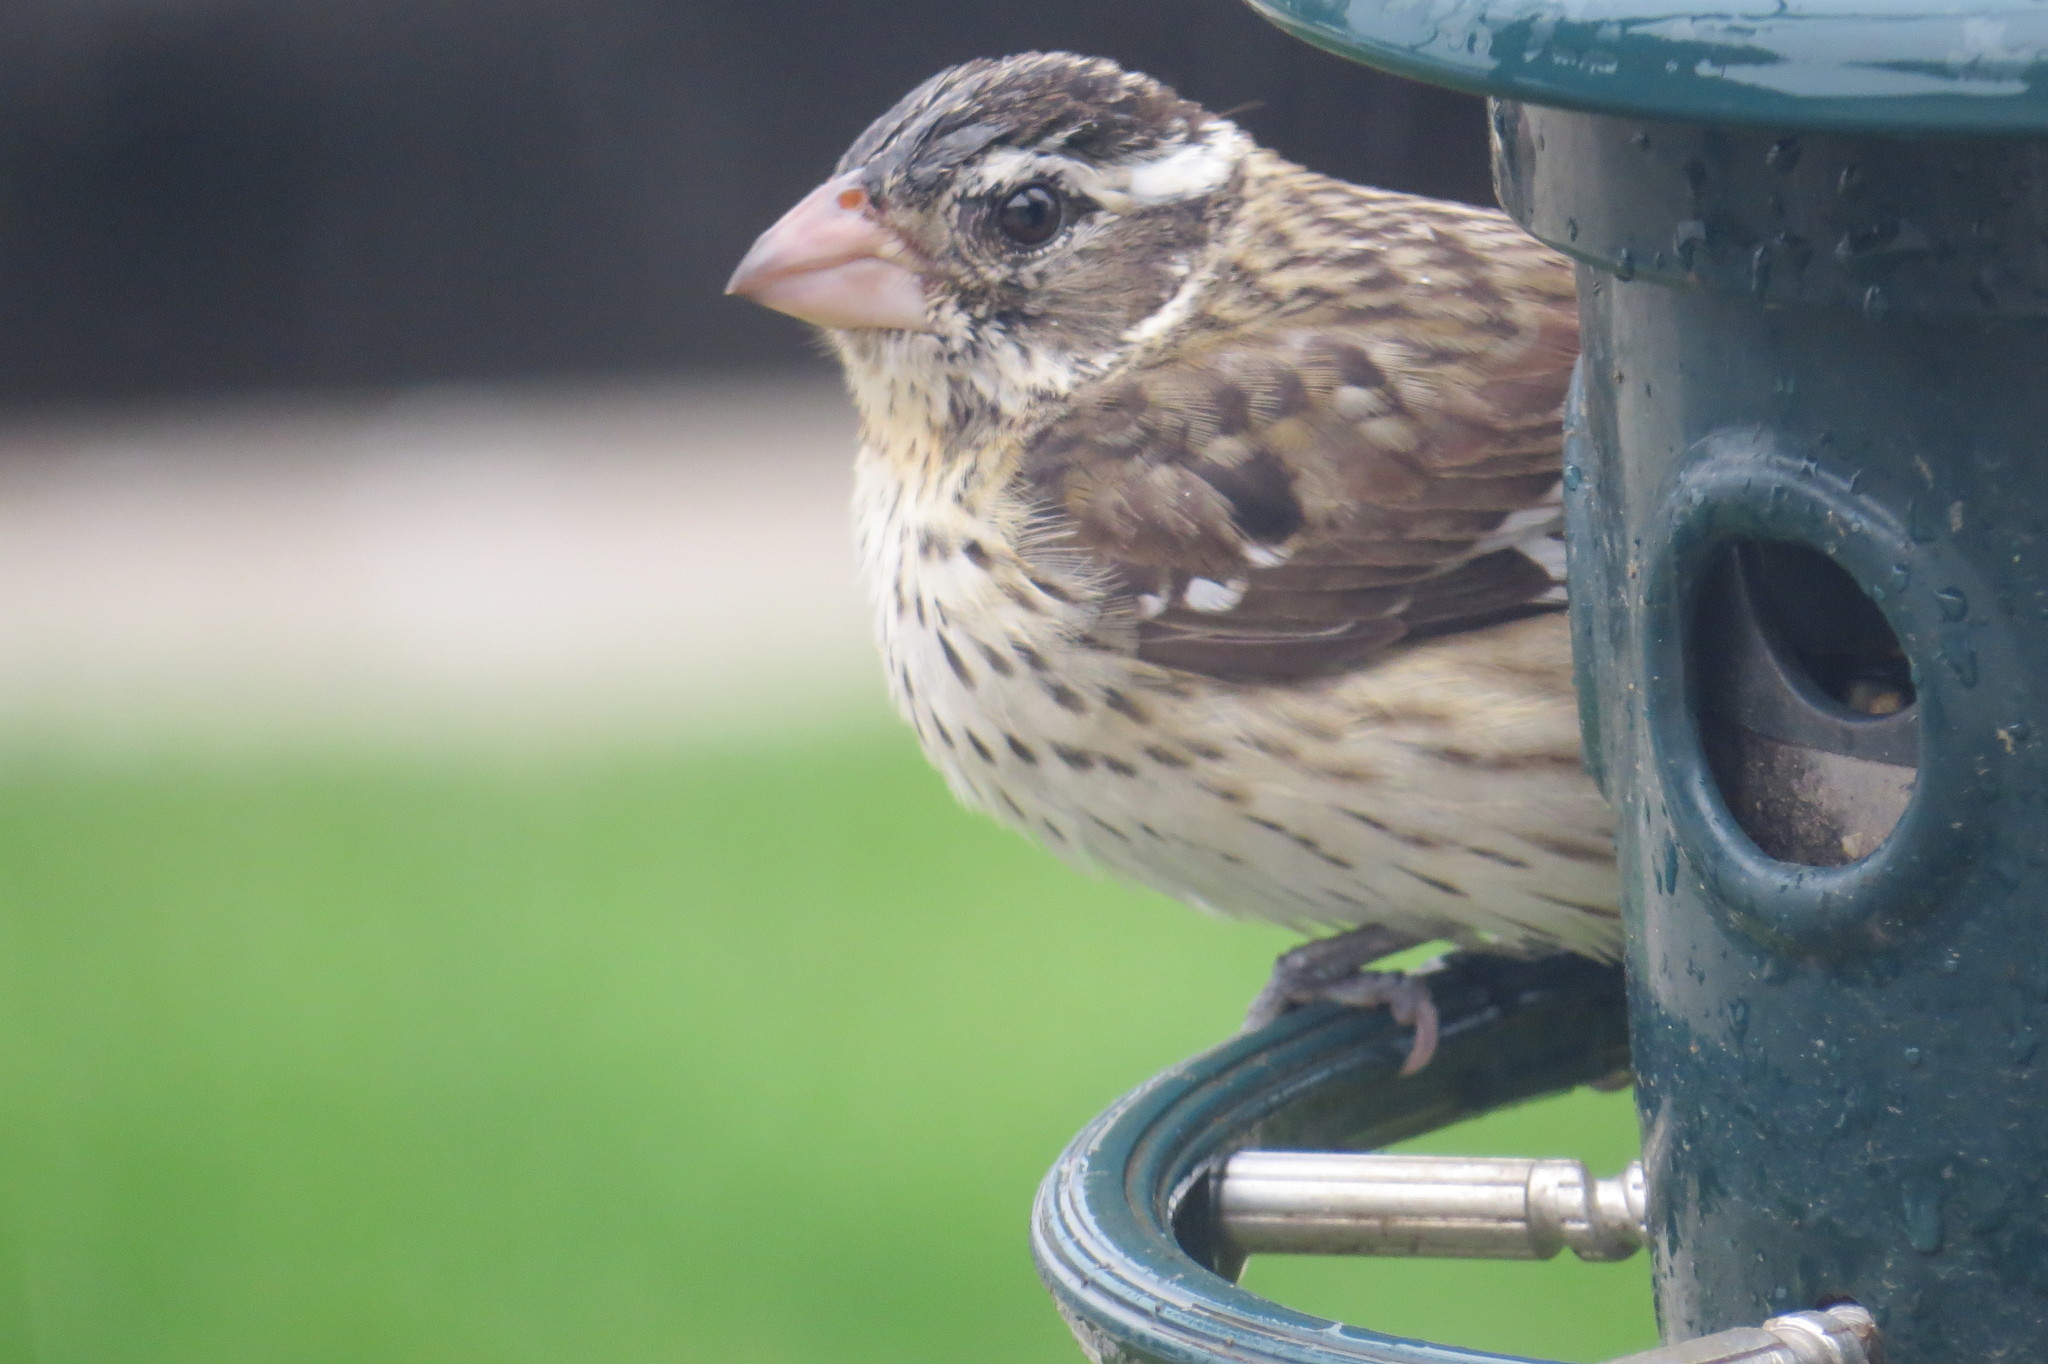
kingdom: Animalia
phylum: Chordata
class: Aves
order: Passeriformes
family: Cardinalidae
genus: Pheucticus
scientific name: Pheucticus ludovicianus
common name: Rose-breasted grosbeak
